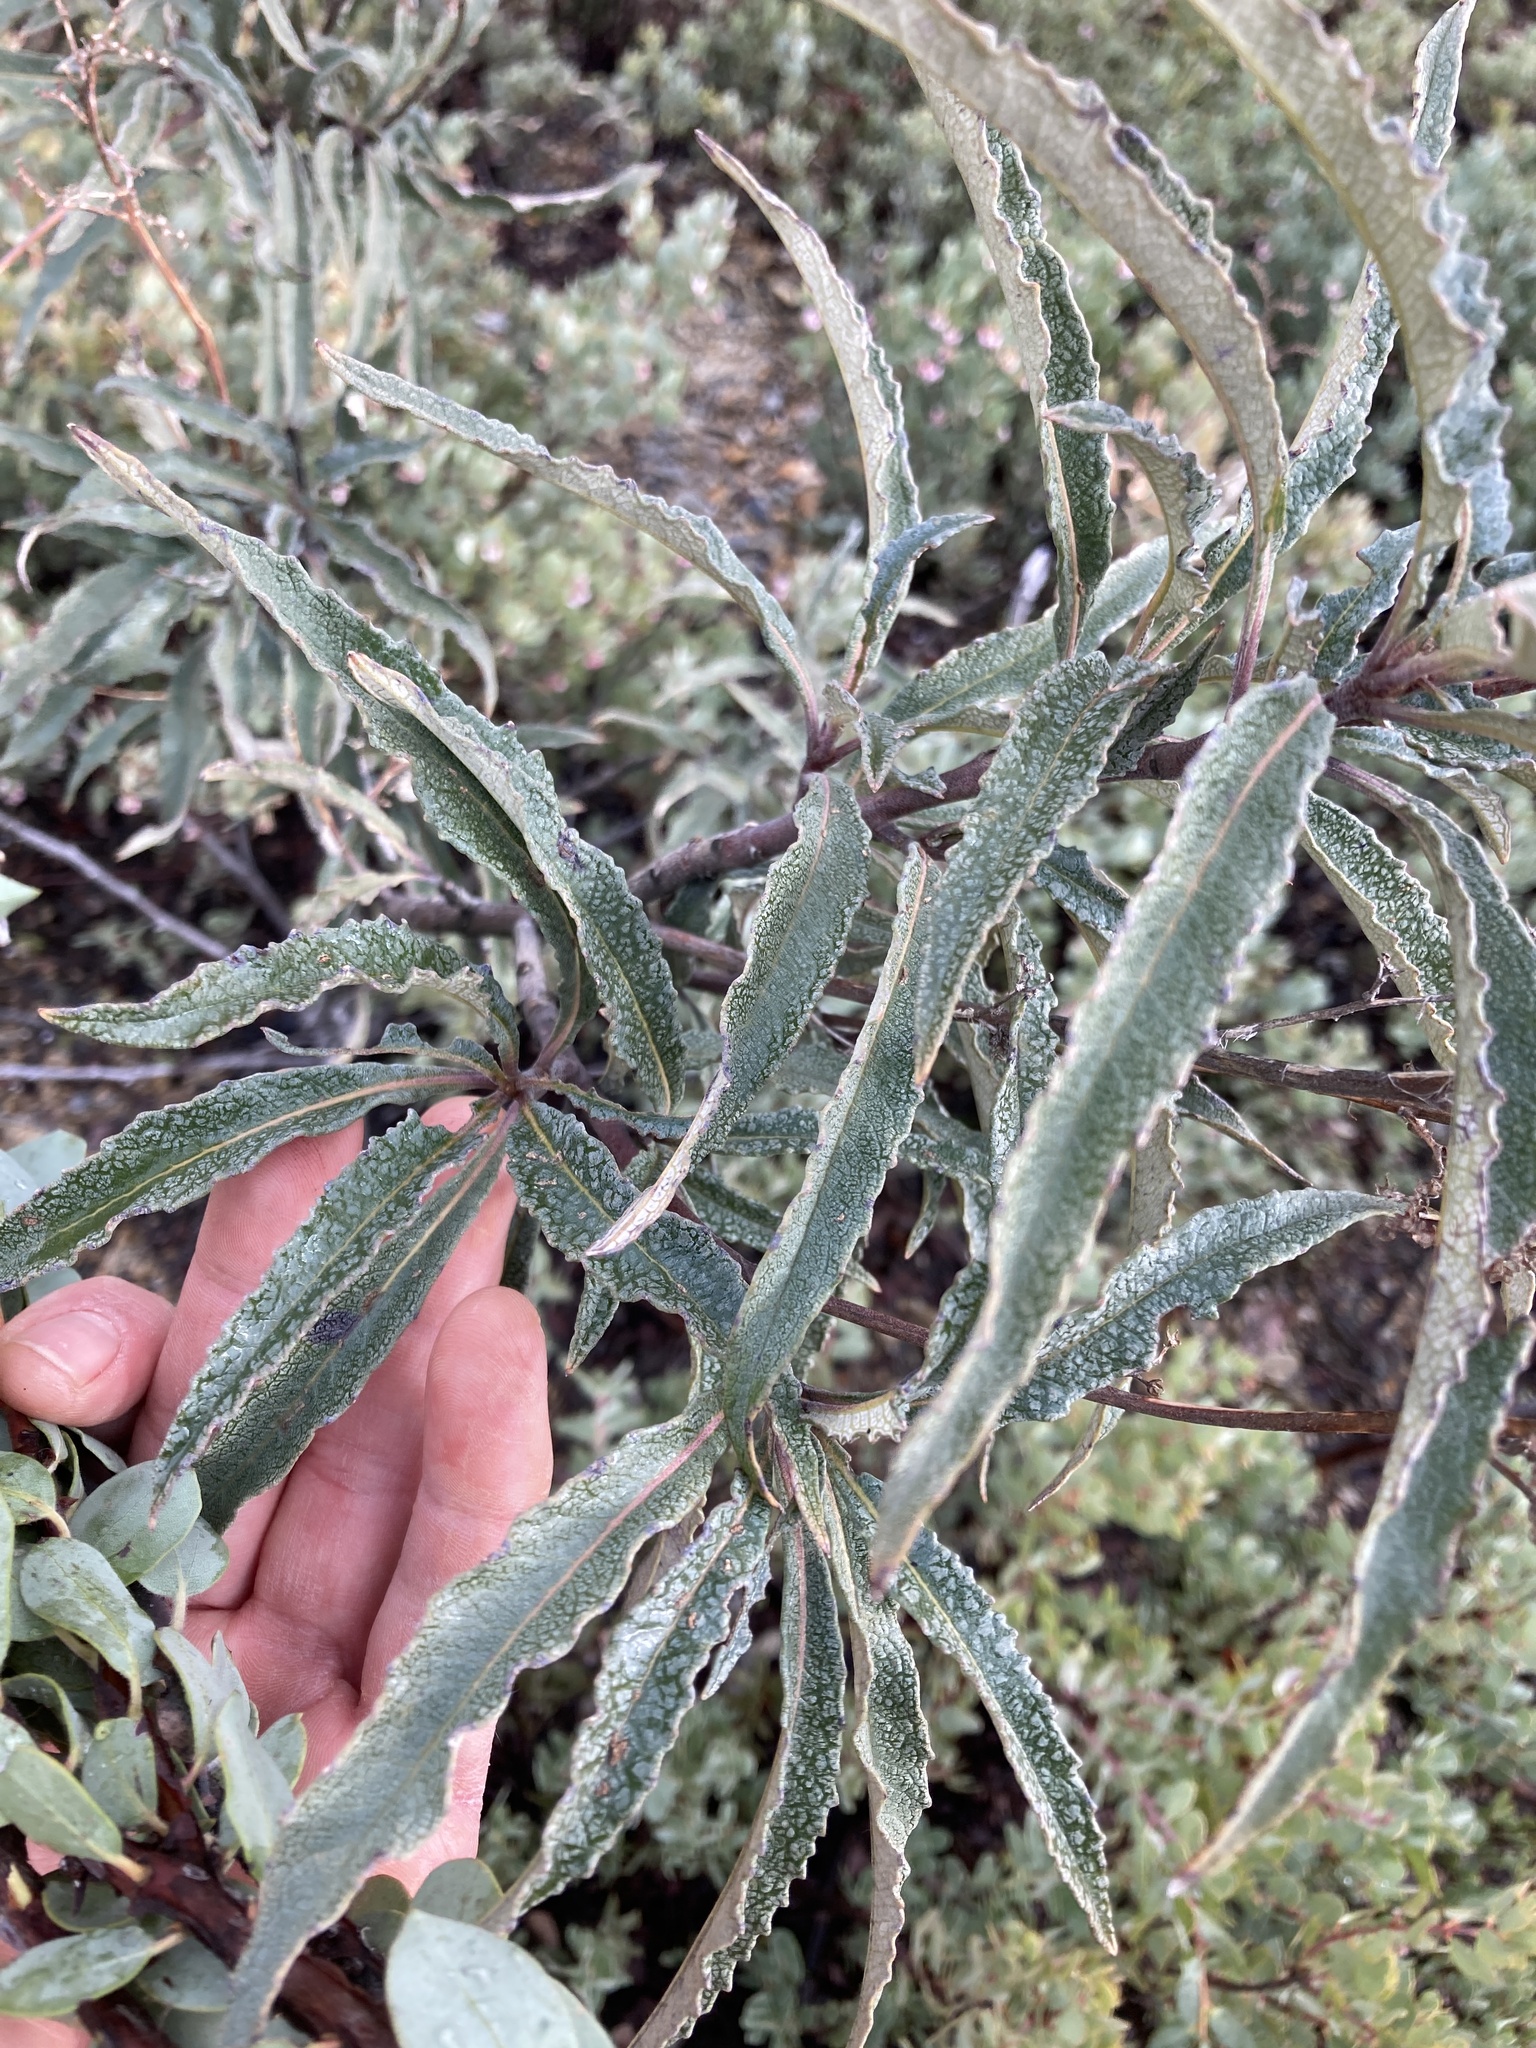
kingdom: Plantae
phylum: Tracheophyta
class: Magnoliopsida
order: Boraginales
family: Namaceae
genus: Eriodictyon
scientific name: Eriodictyon californicum
